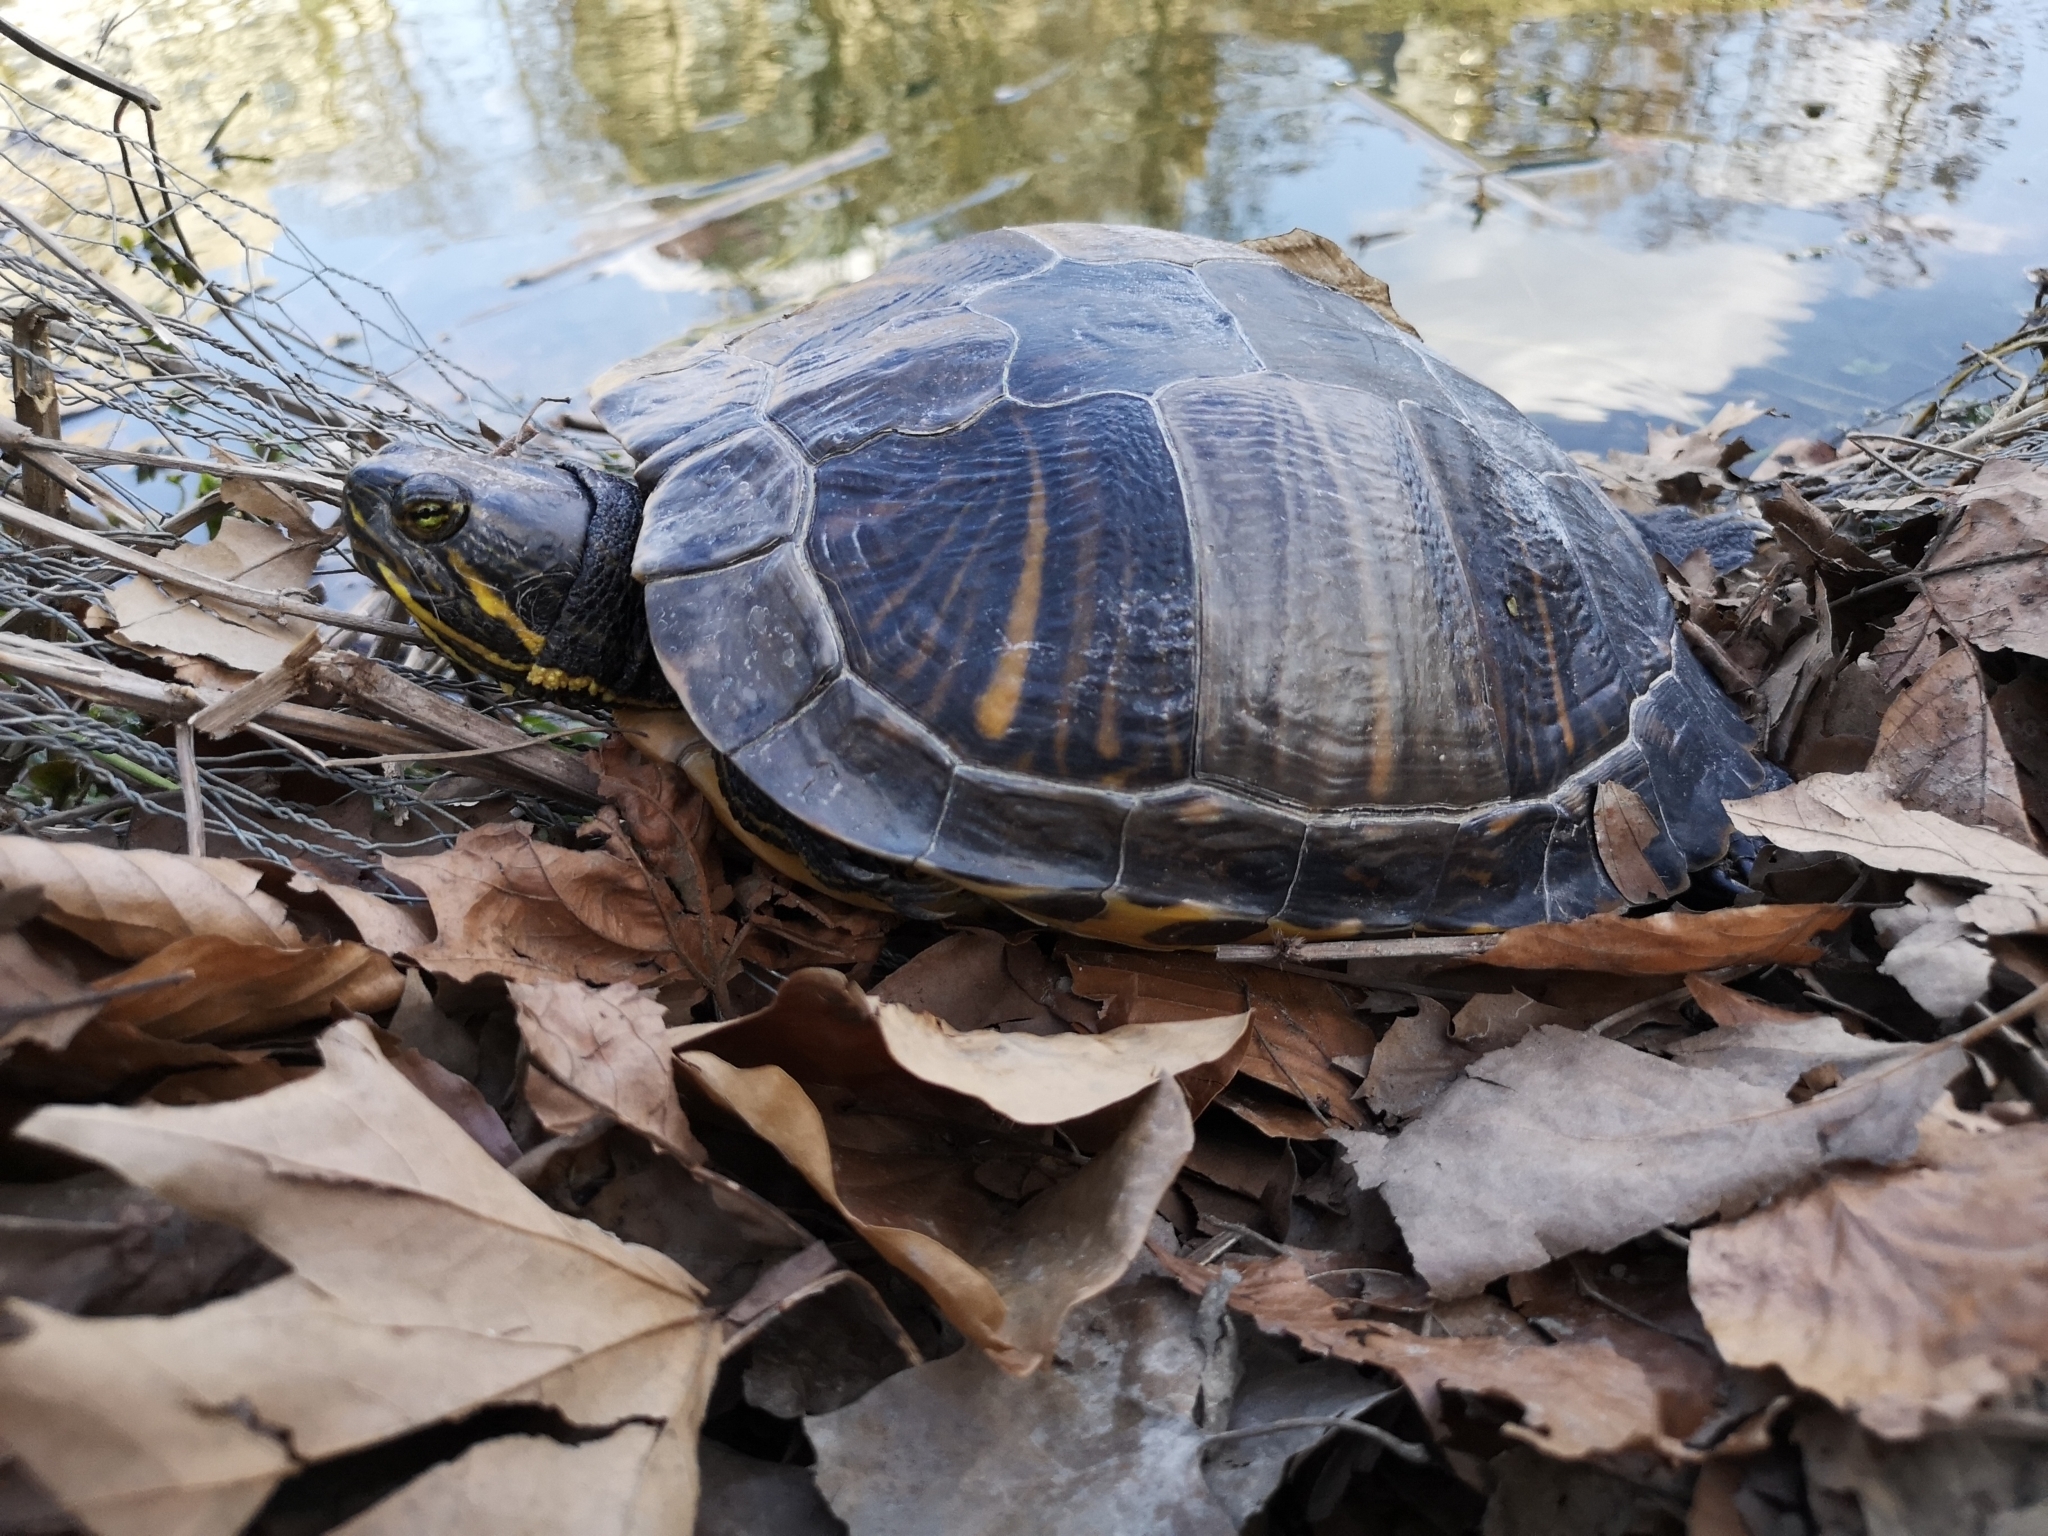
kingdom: Animalia
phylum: Chordata
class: Testudines
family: Emydidae
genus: Trachemys
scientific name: Trachemys scripta
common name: Slider
